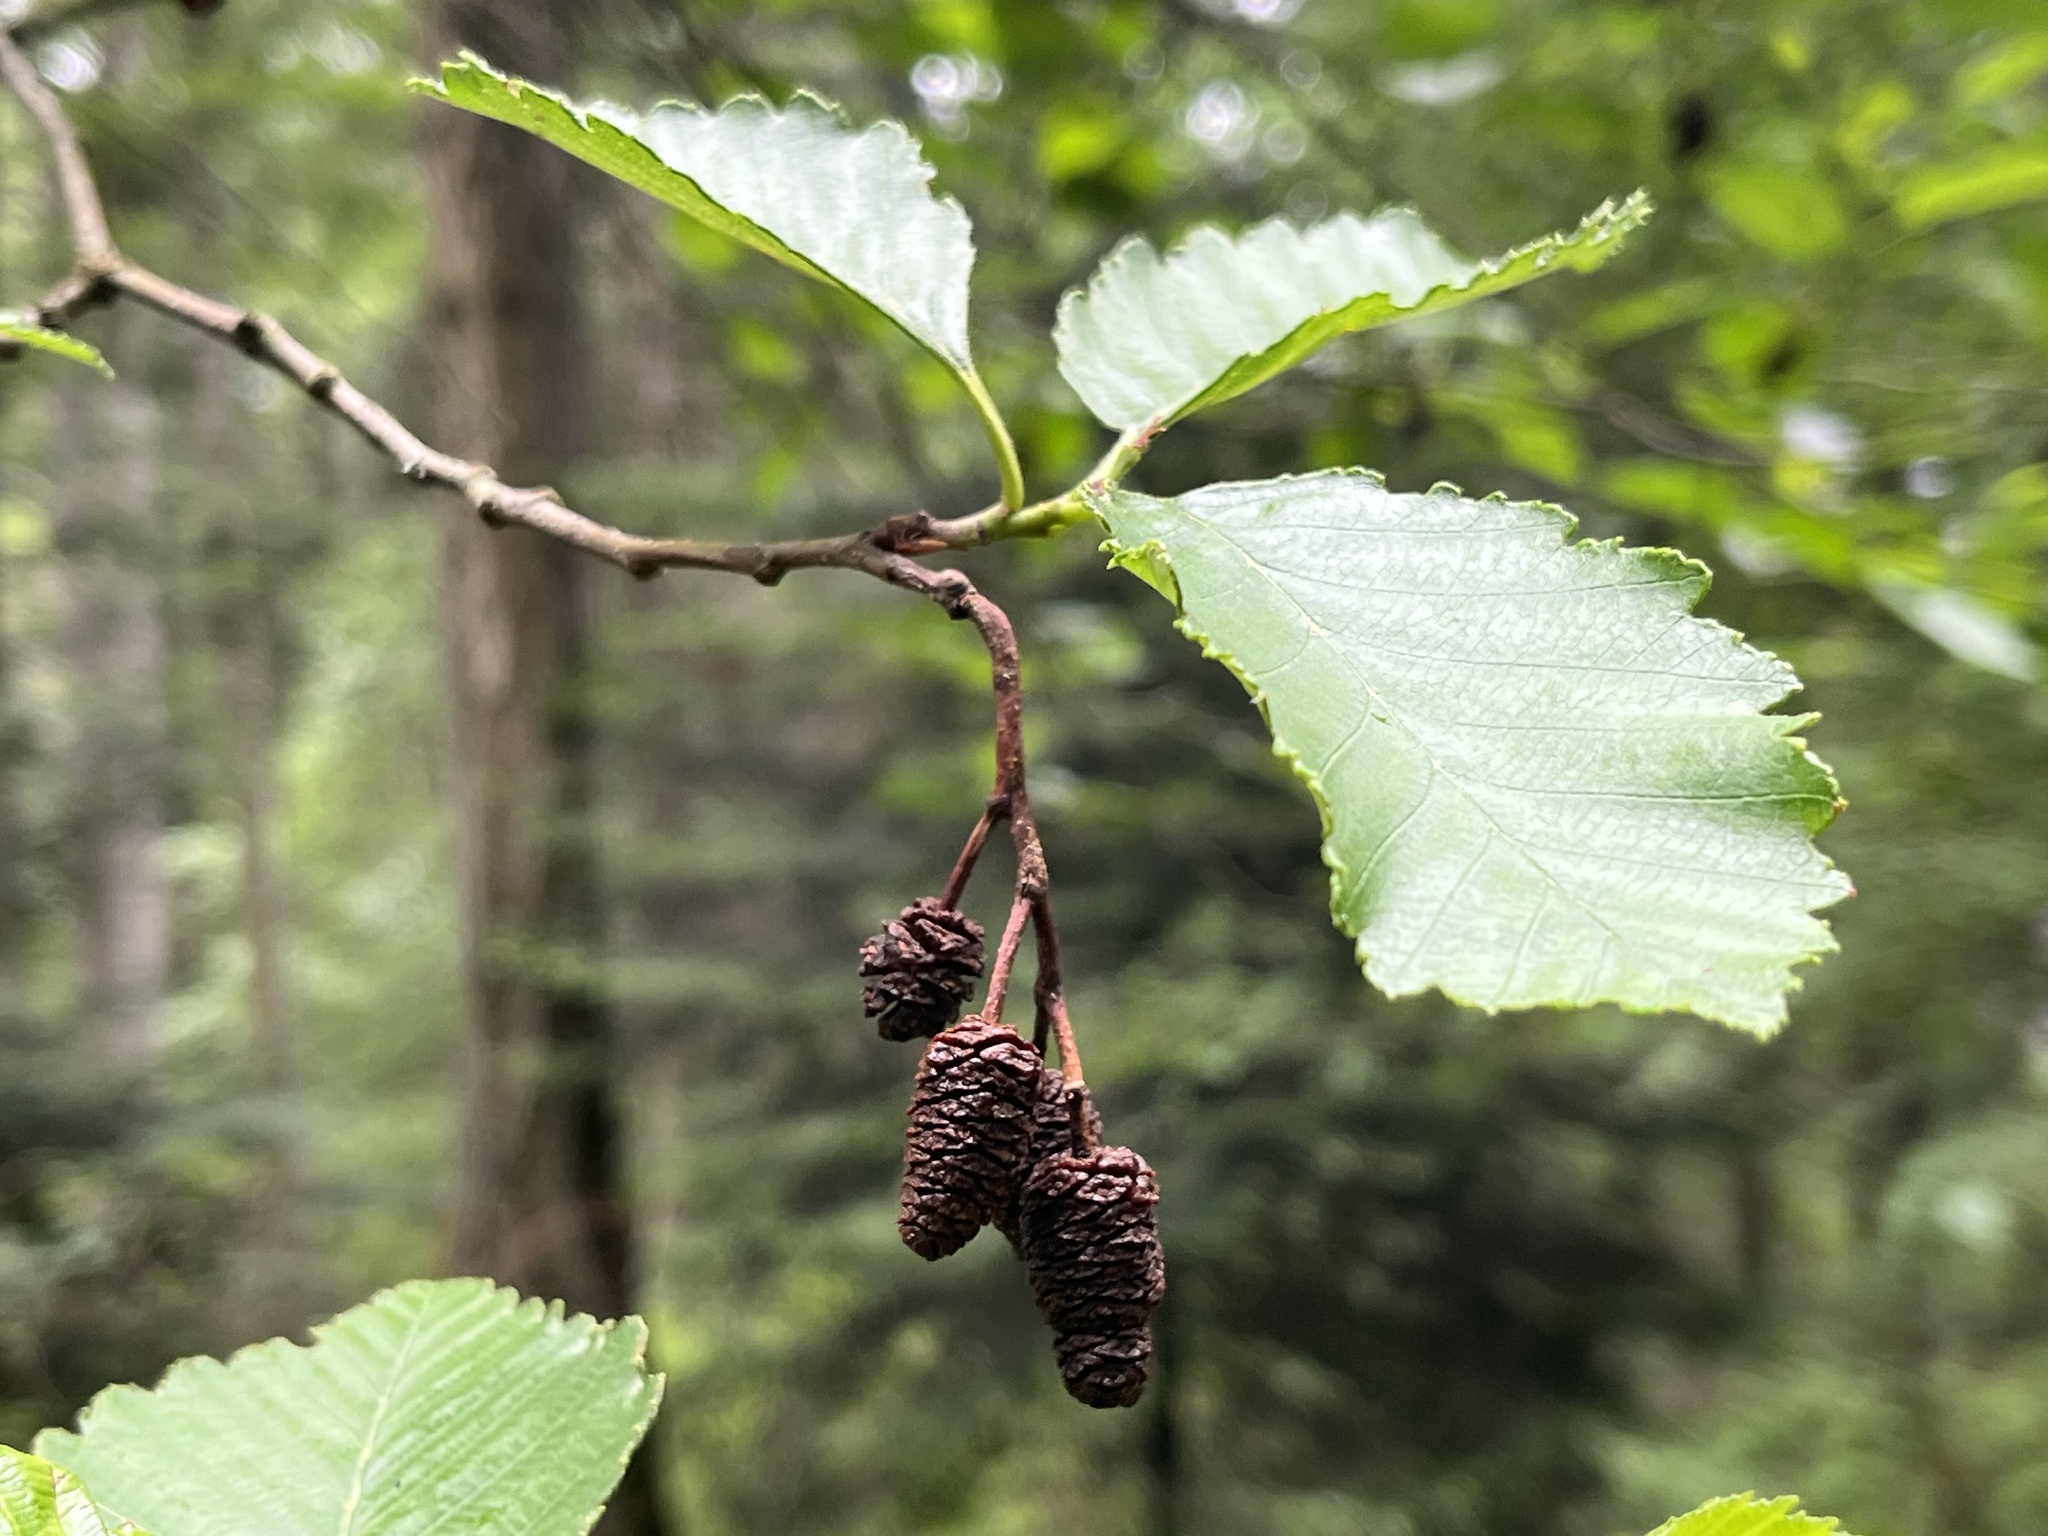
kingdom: Plantae
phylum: Tracheophyta
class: Magnoliopsida
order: Fagales
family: Betulaceae
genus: Alnus
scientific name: Alnus rubra
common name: Red alder
